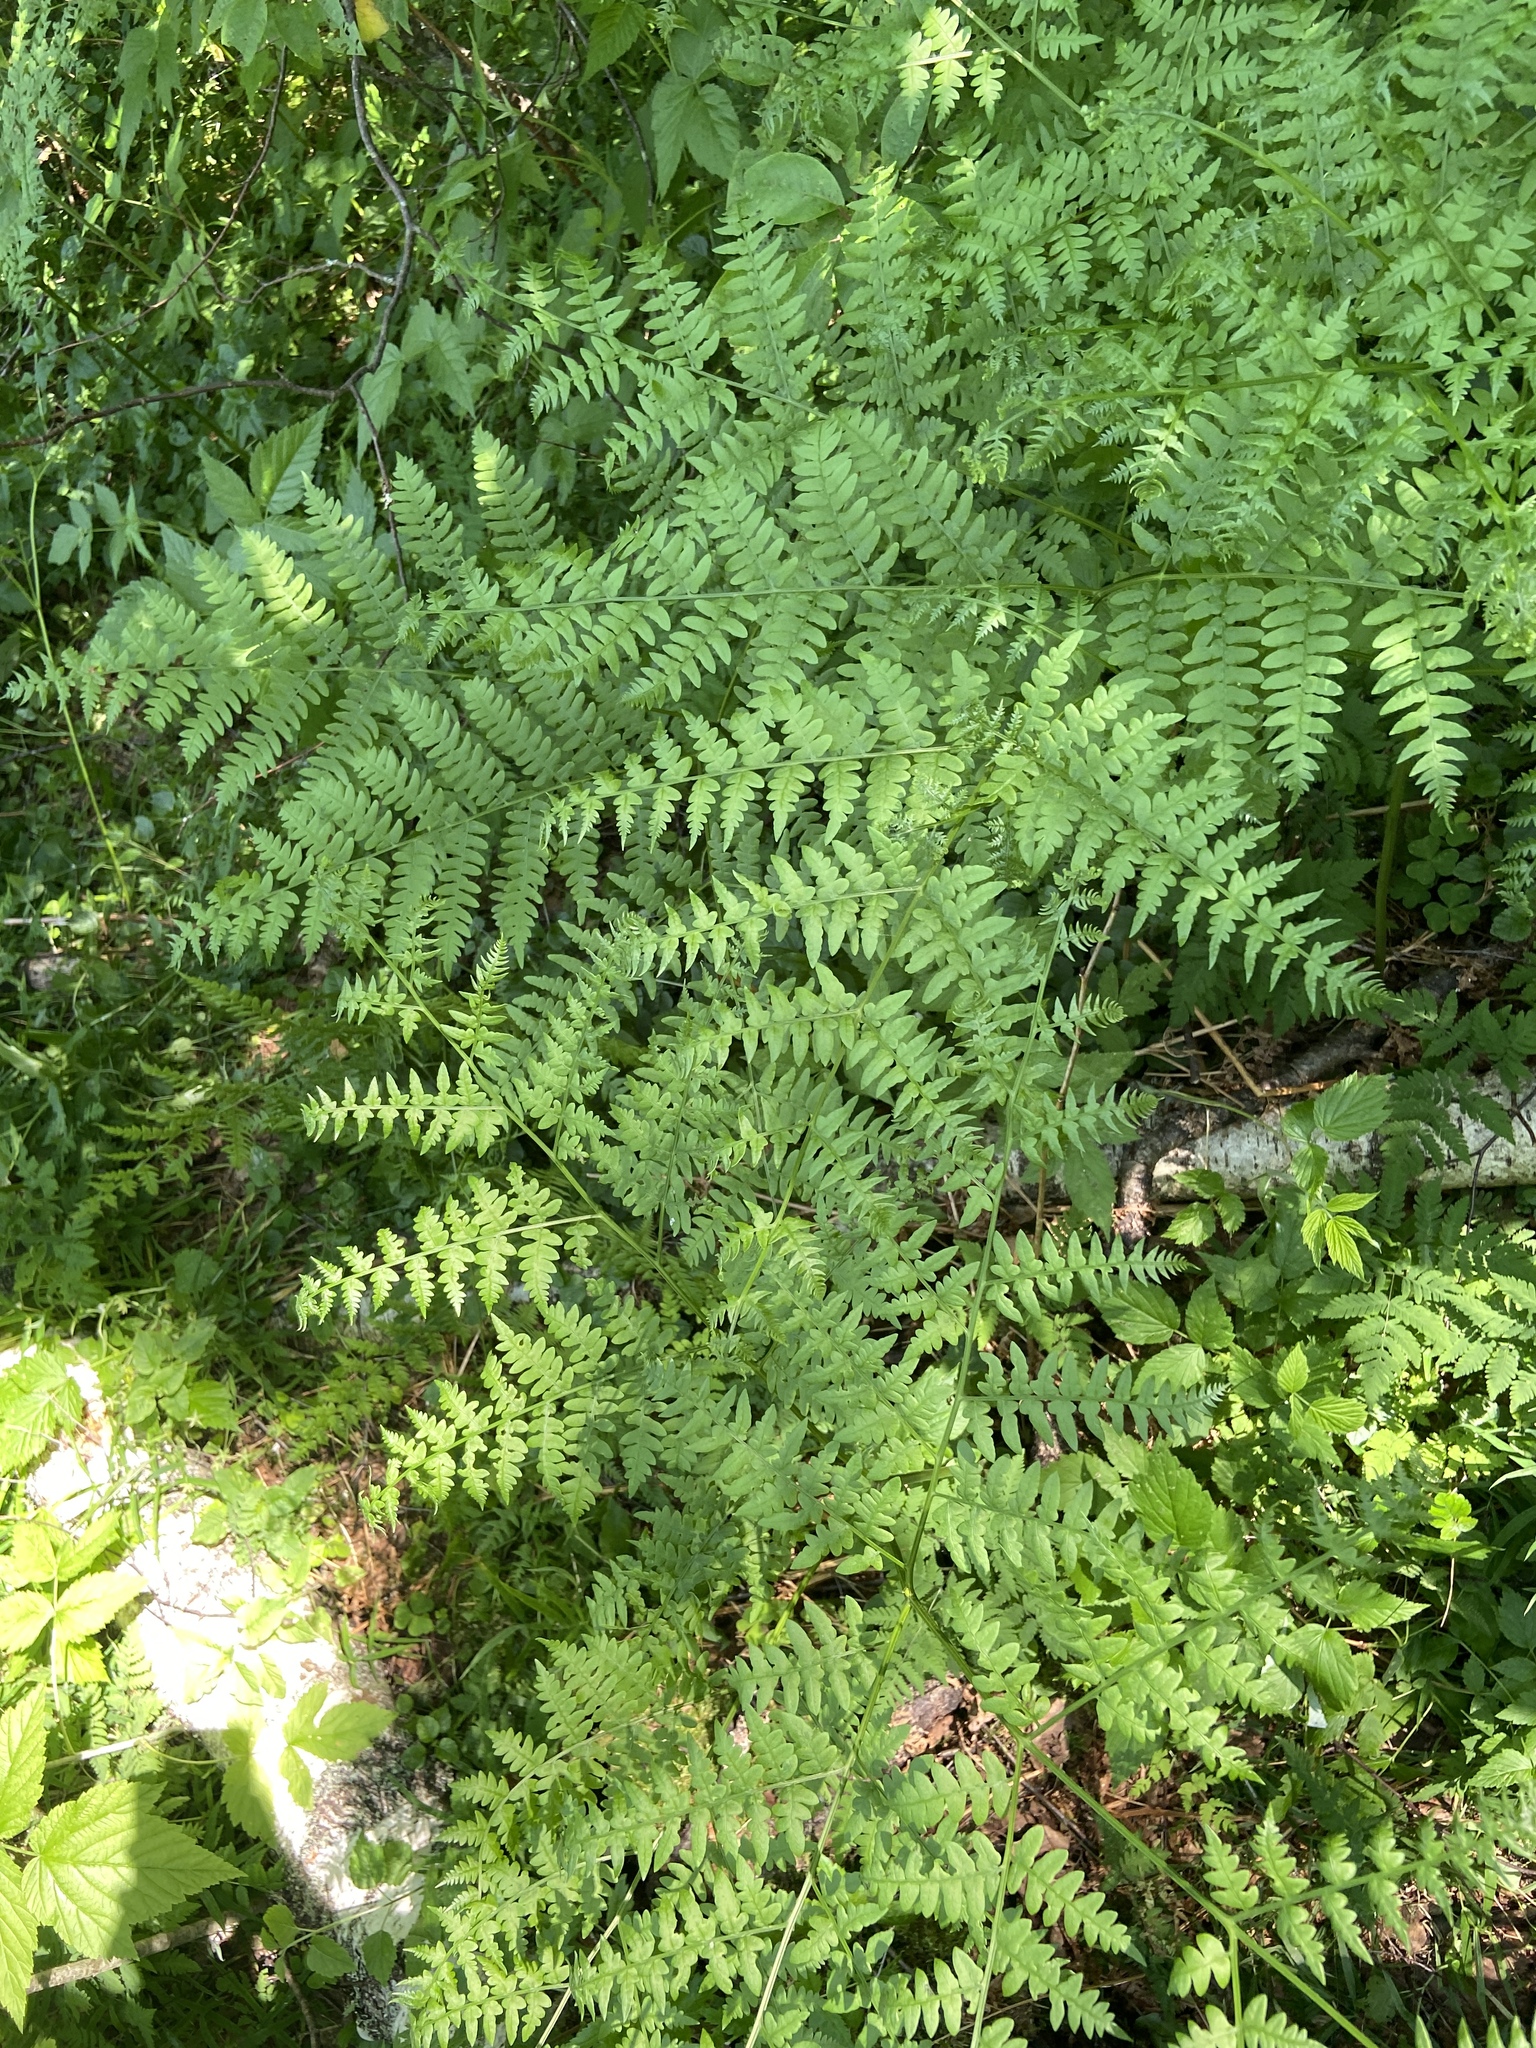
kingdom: Plantae
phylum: Tracheophyta
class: Polypodiopsida
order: Polypodiales
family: Dennstaedtiaceae
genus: Pteridium
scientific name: Pteridium aquilinum
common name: Bracken
